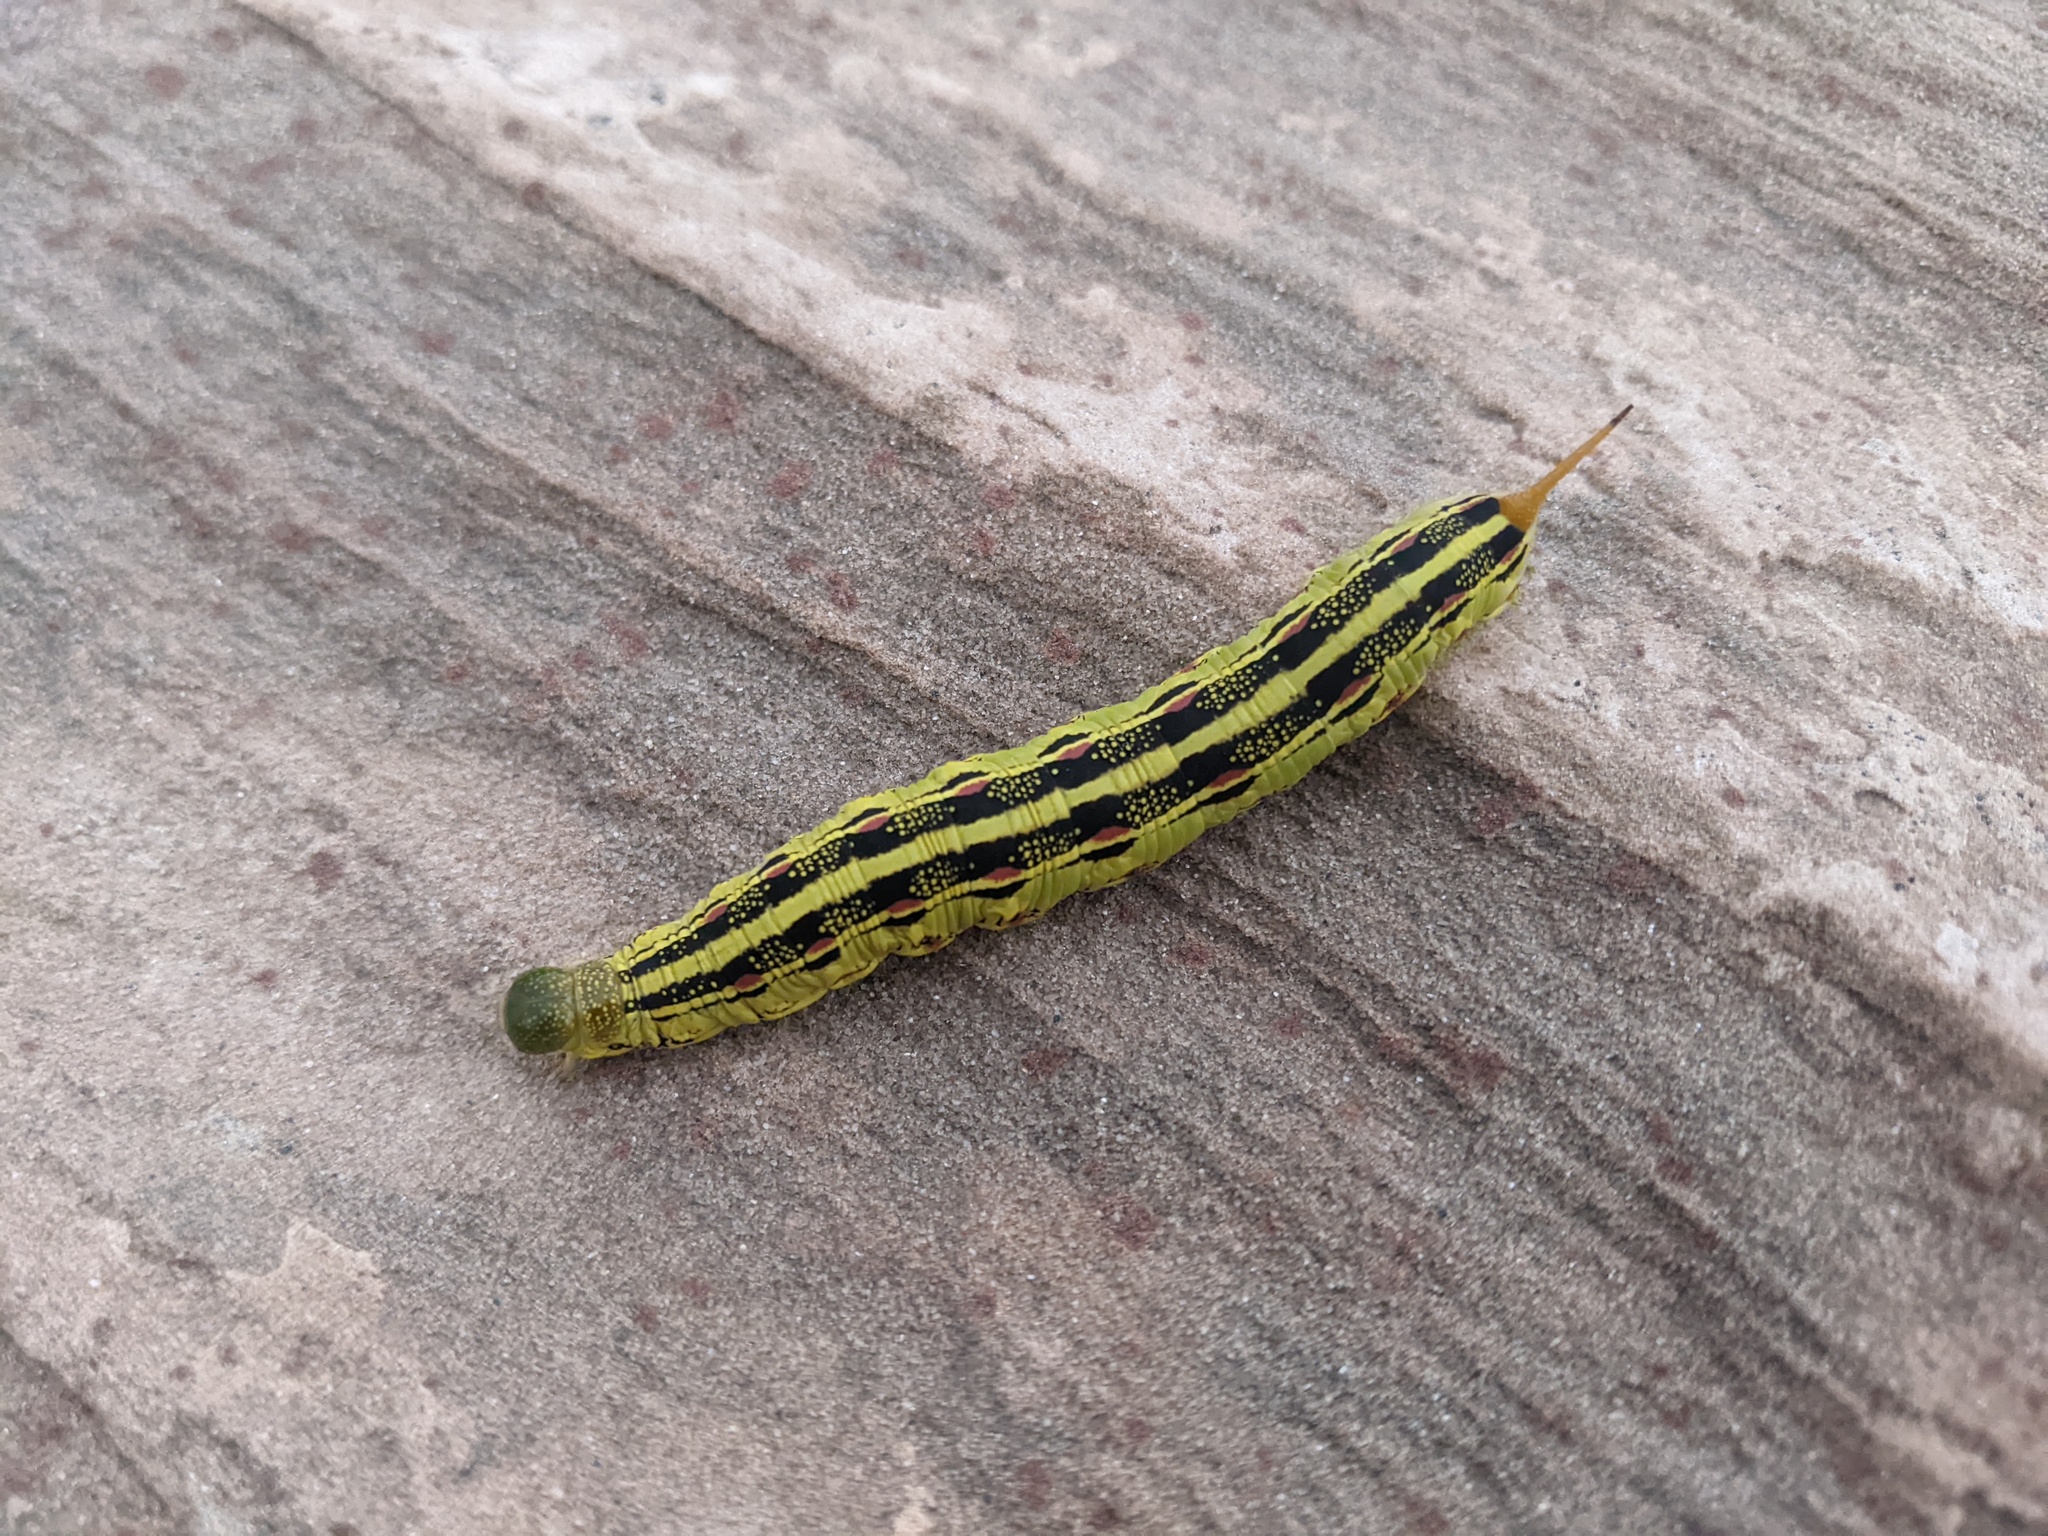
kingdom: Animalia
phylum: Arthropoda
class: Insecta
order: Lepidoptera
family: Sphingidae
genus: Hyles
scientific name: Hyles lineata
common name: White-lined sphinx
